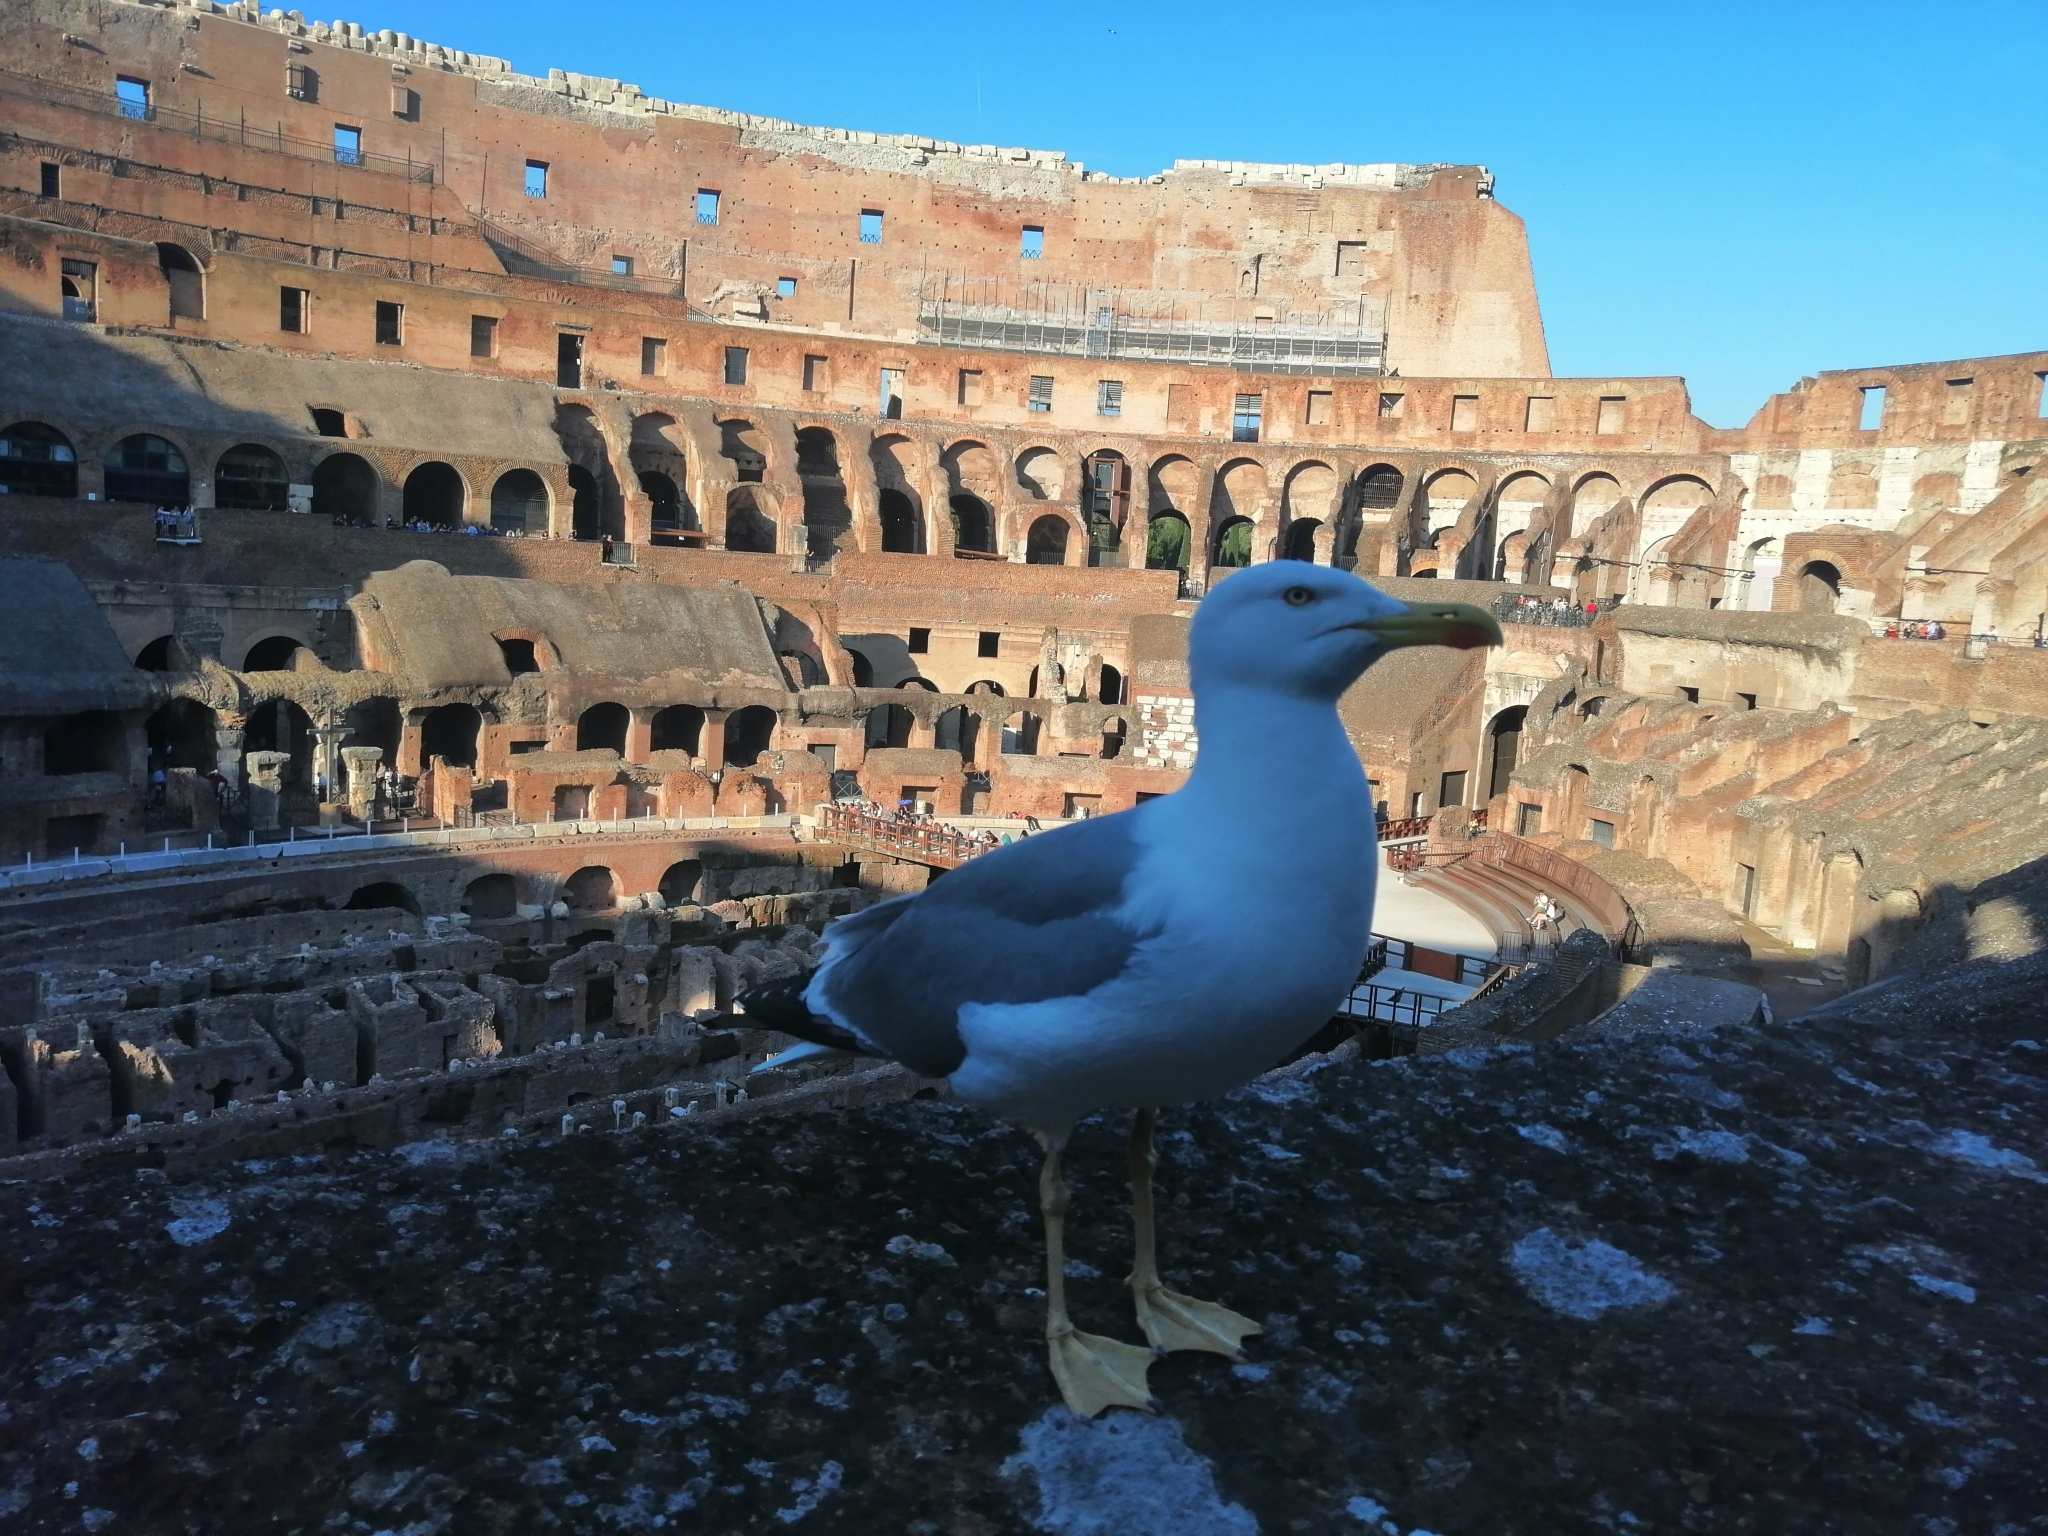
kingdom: Animalia
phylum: Chordata
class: Aves
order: Charadriiformes
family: Laridae
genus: Larus
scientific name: Larus michahellis
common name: Yellow-legged gull
